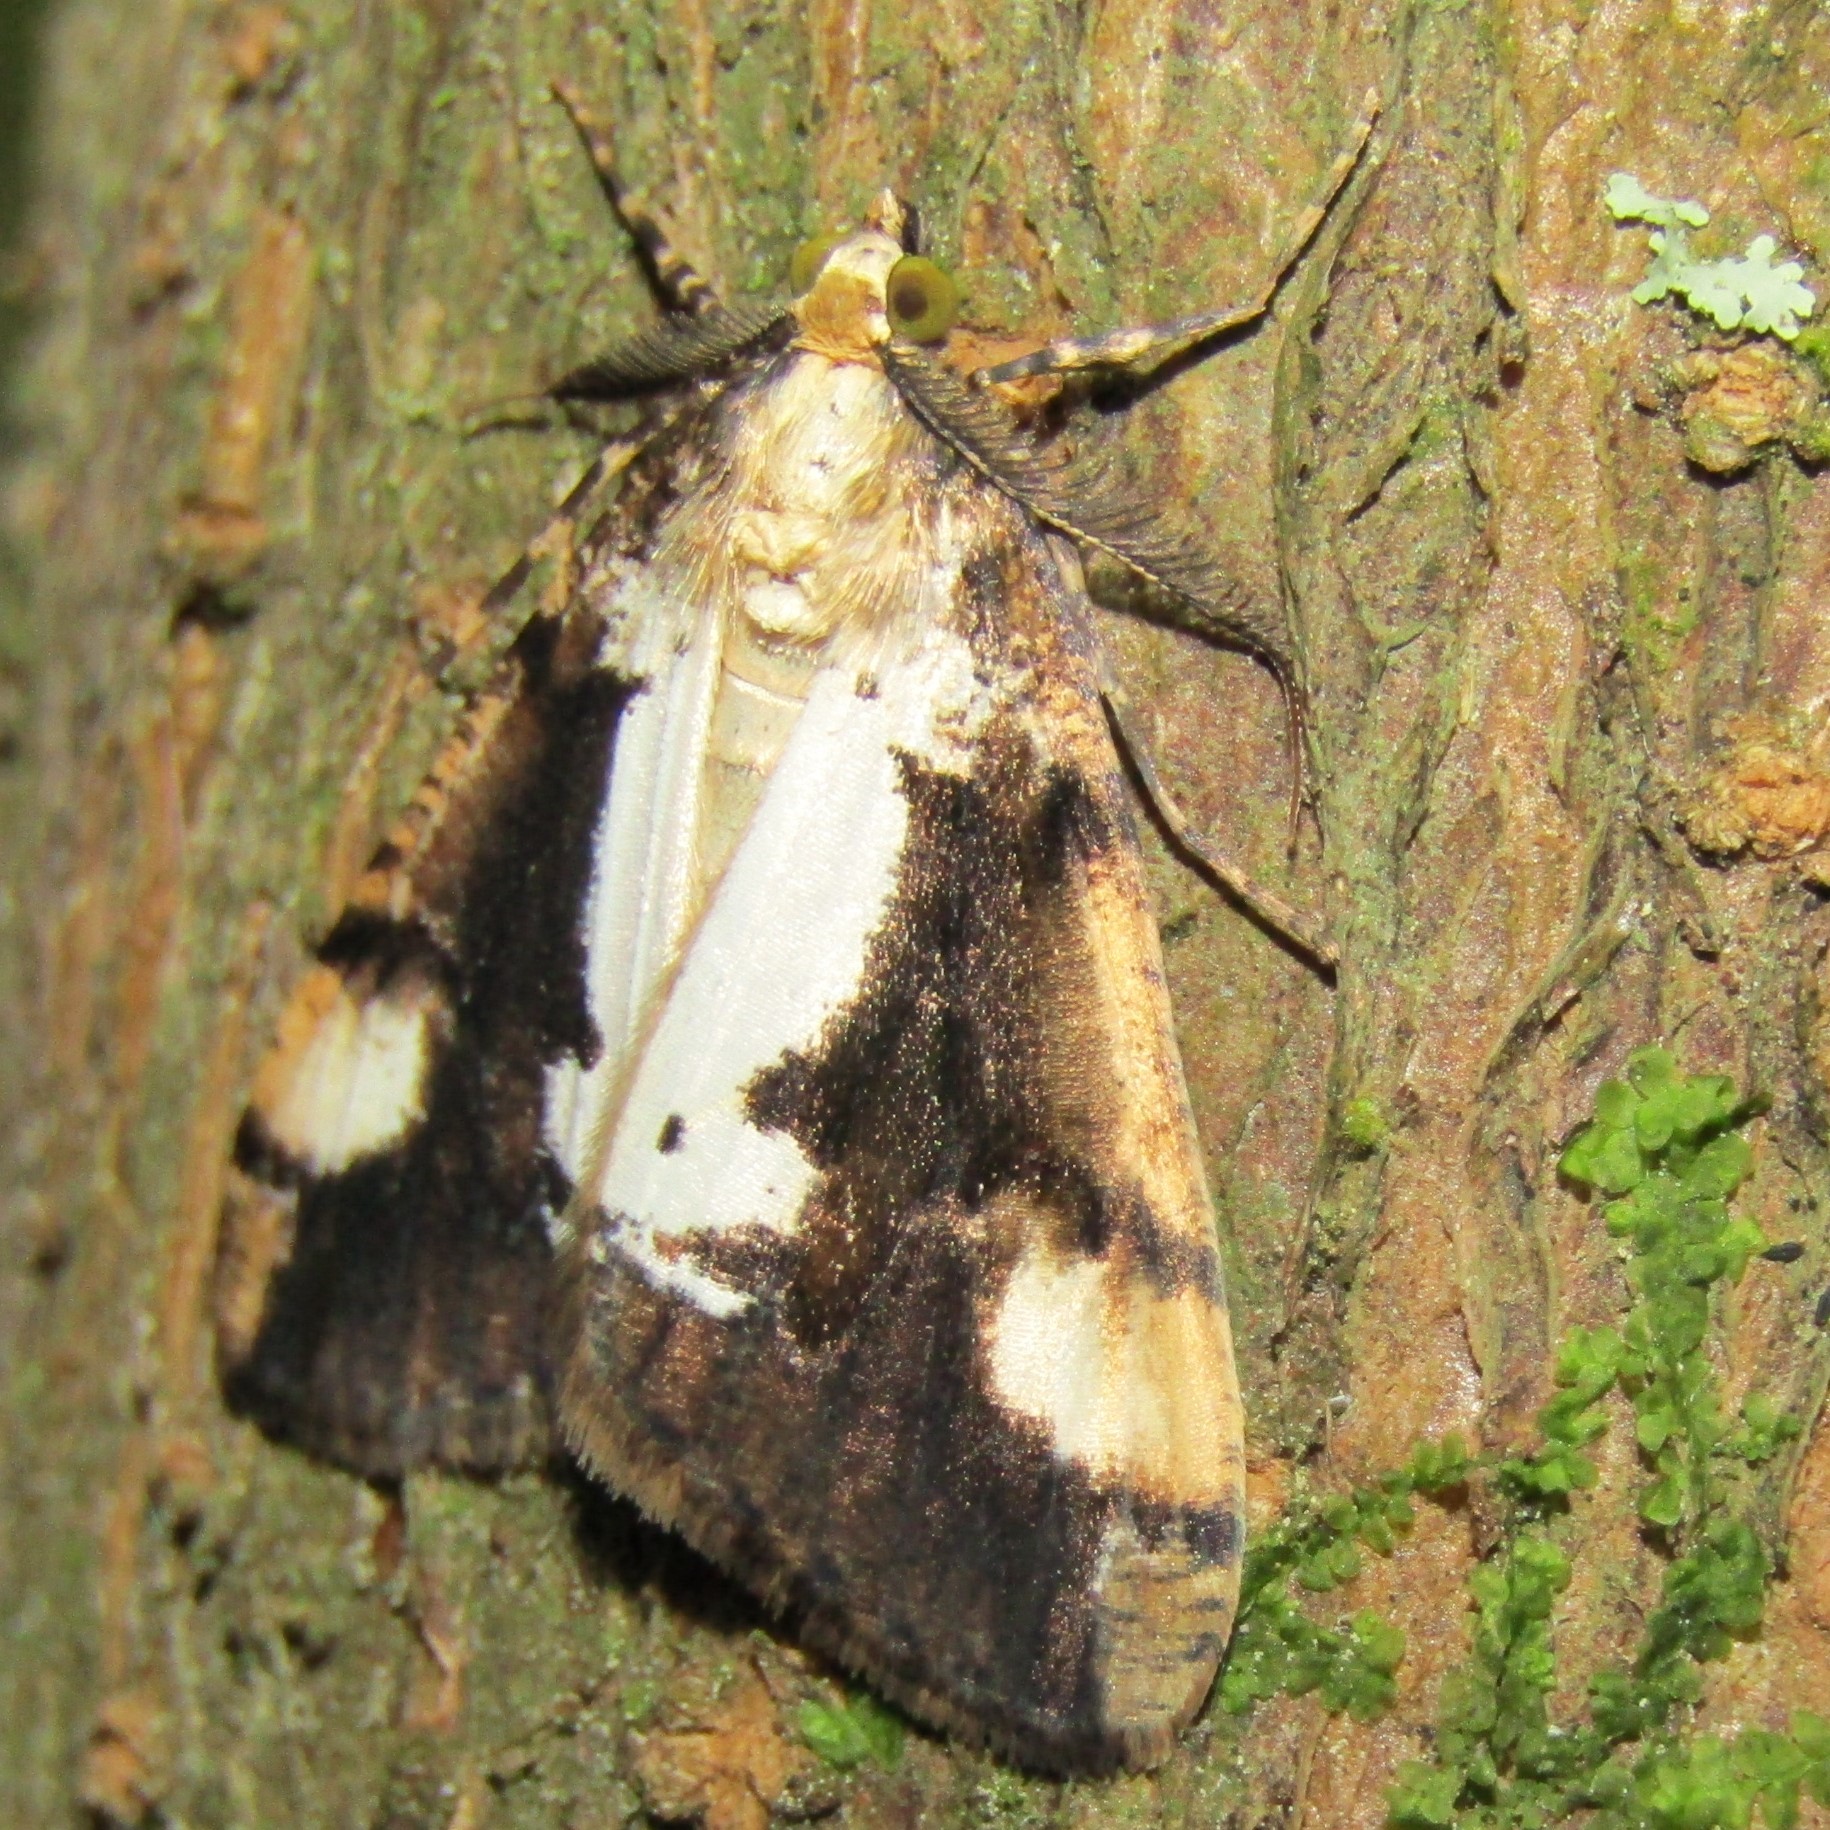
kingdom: Animalia
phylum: Arthropoda
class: Insecta
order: Lepidoptera
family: Geometridae
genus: Pseudocoremia
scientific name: Pseudocoremia leucelaea
